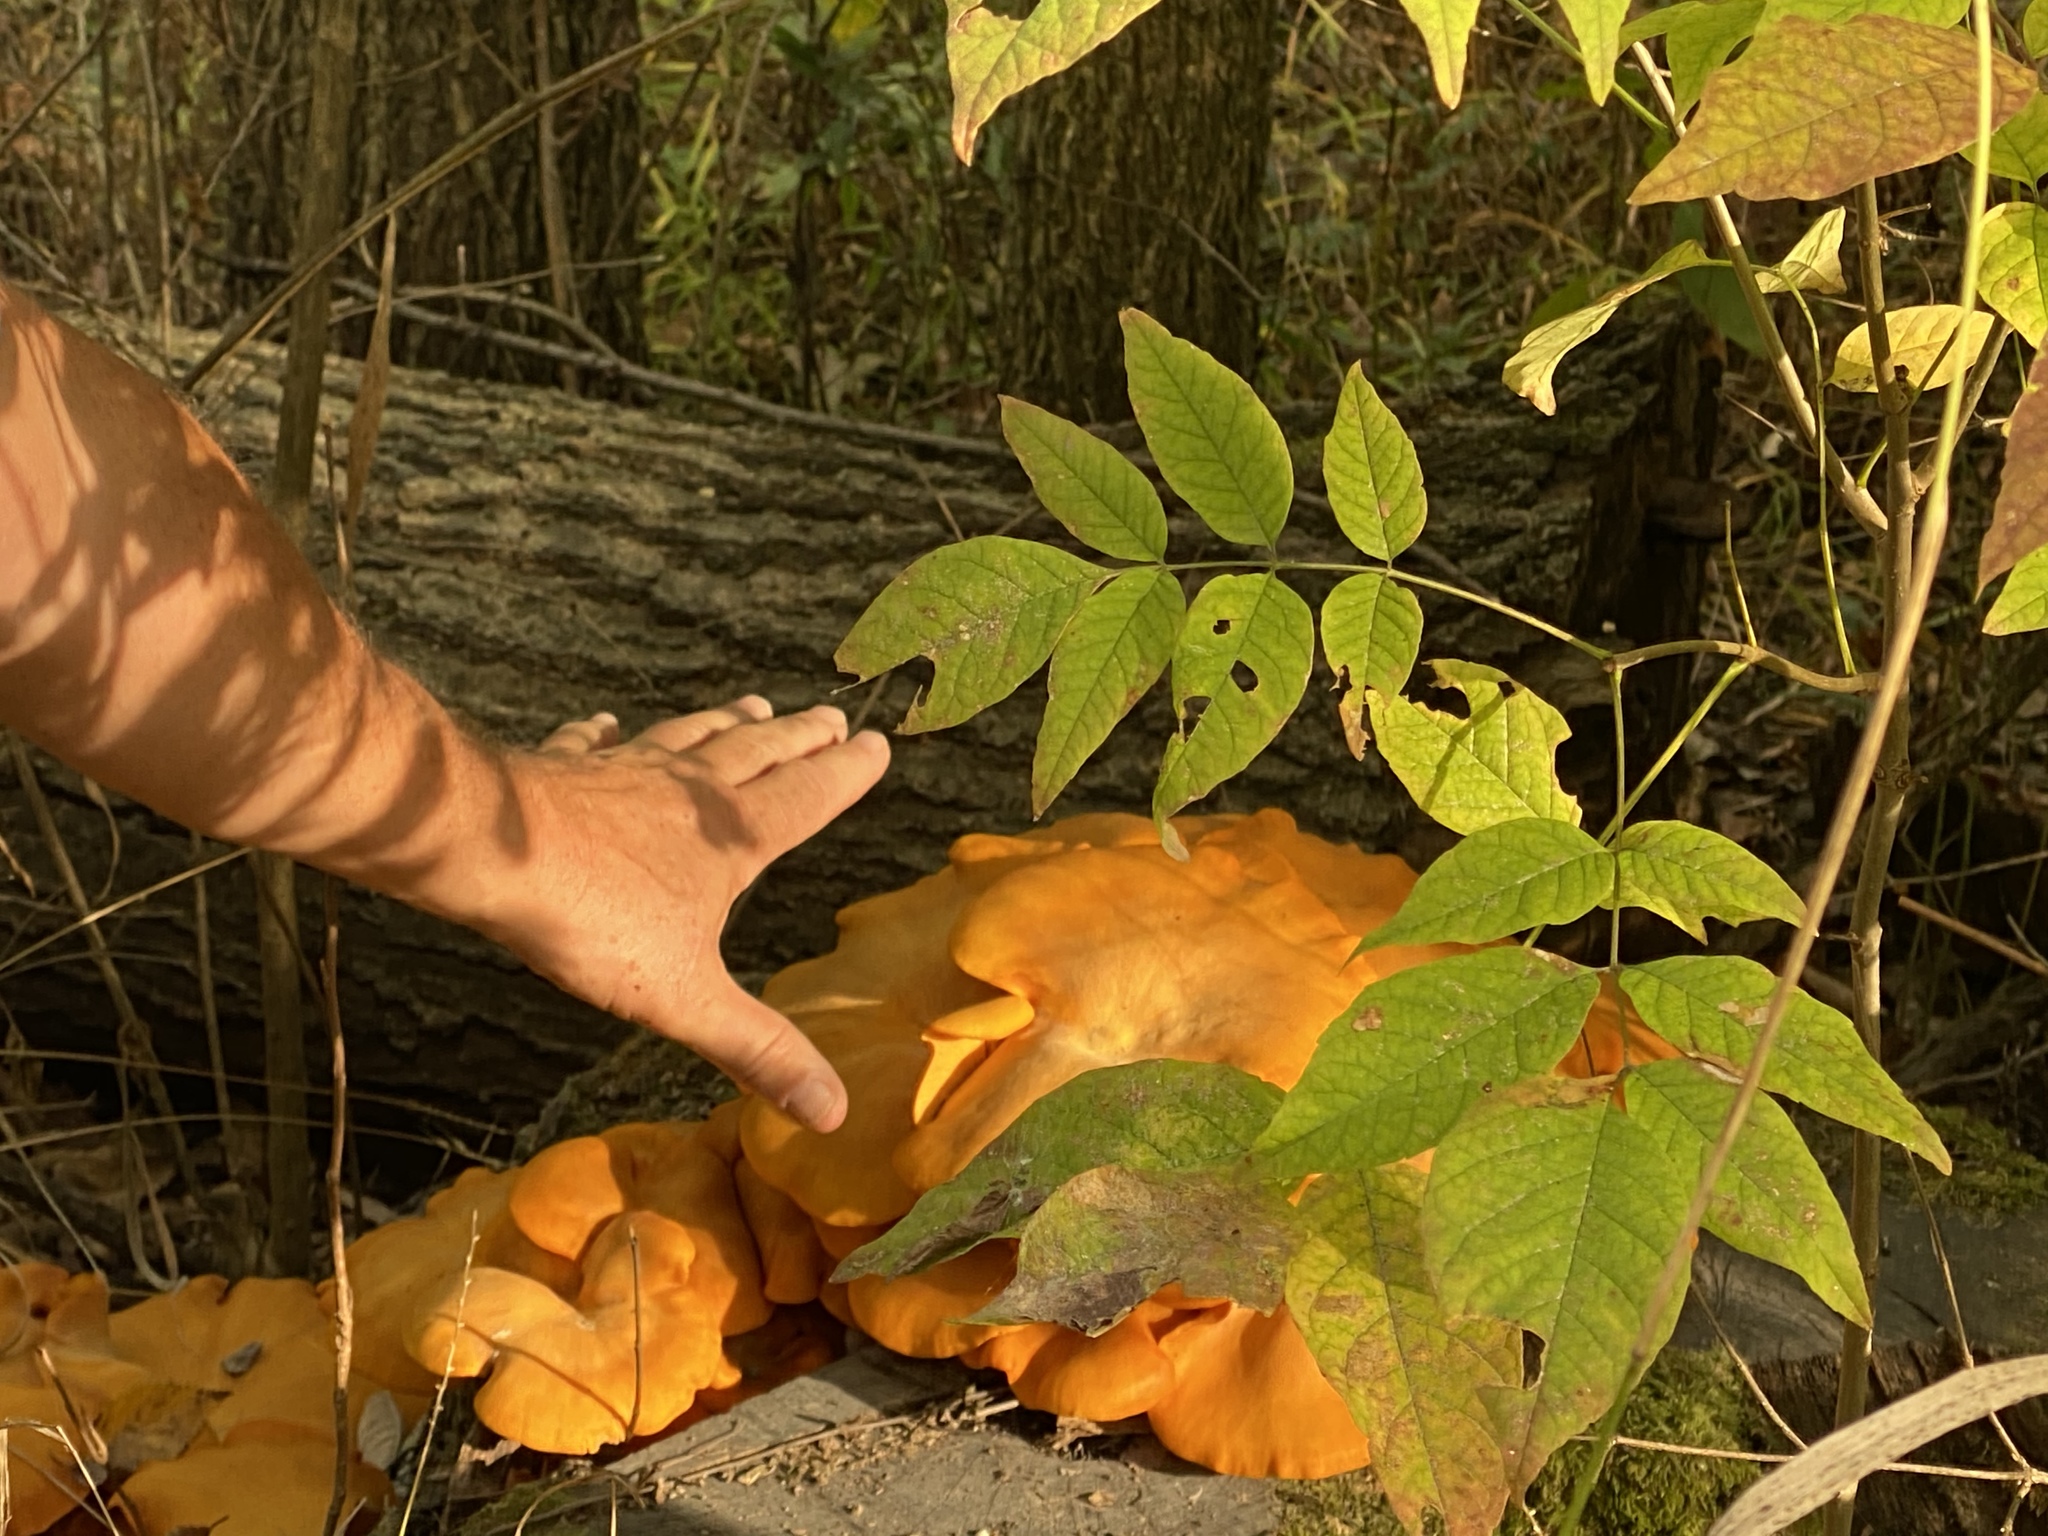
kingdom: Fungi
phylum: Basidiomycota
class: Agaricomycetes
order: Agaricales
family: Omphalotaceae
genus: Omphalotus
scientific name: Omphalotus illudens
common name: Jack o lantern
